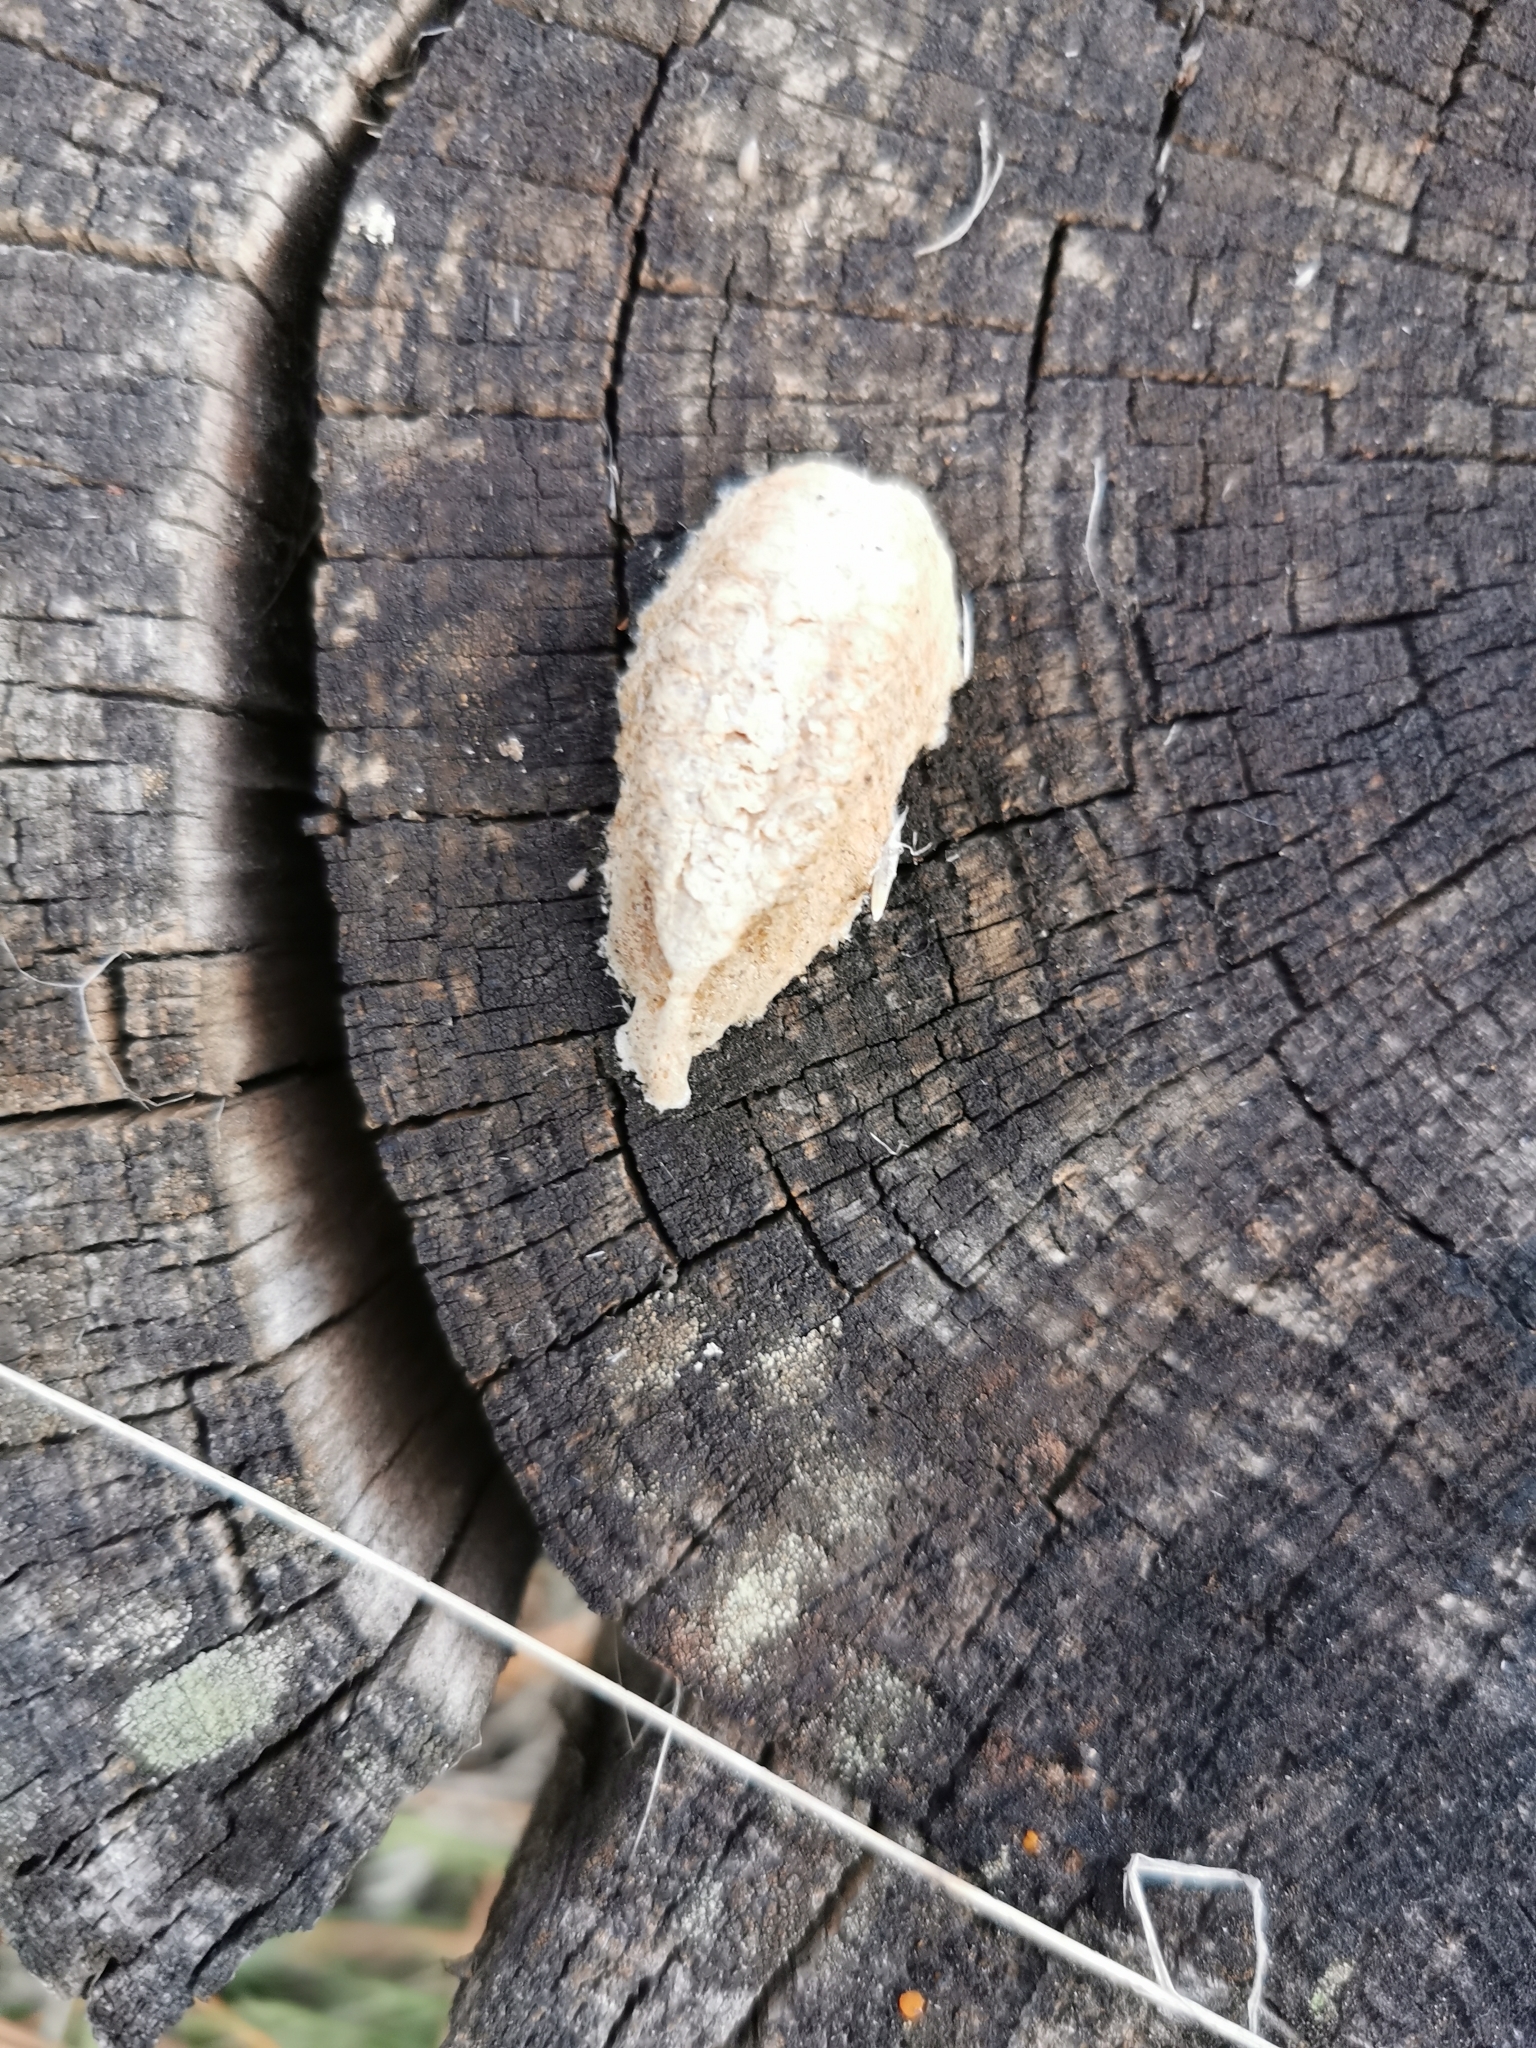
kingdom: Animalia
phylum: Arthropoda
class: Insecta
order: Mantodea
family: Mantidae
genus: Mantis
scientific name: Mantis religiosa
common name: Praying mantis
